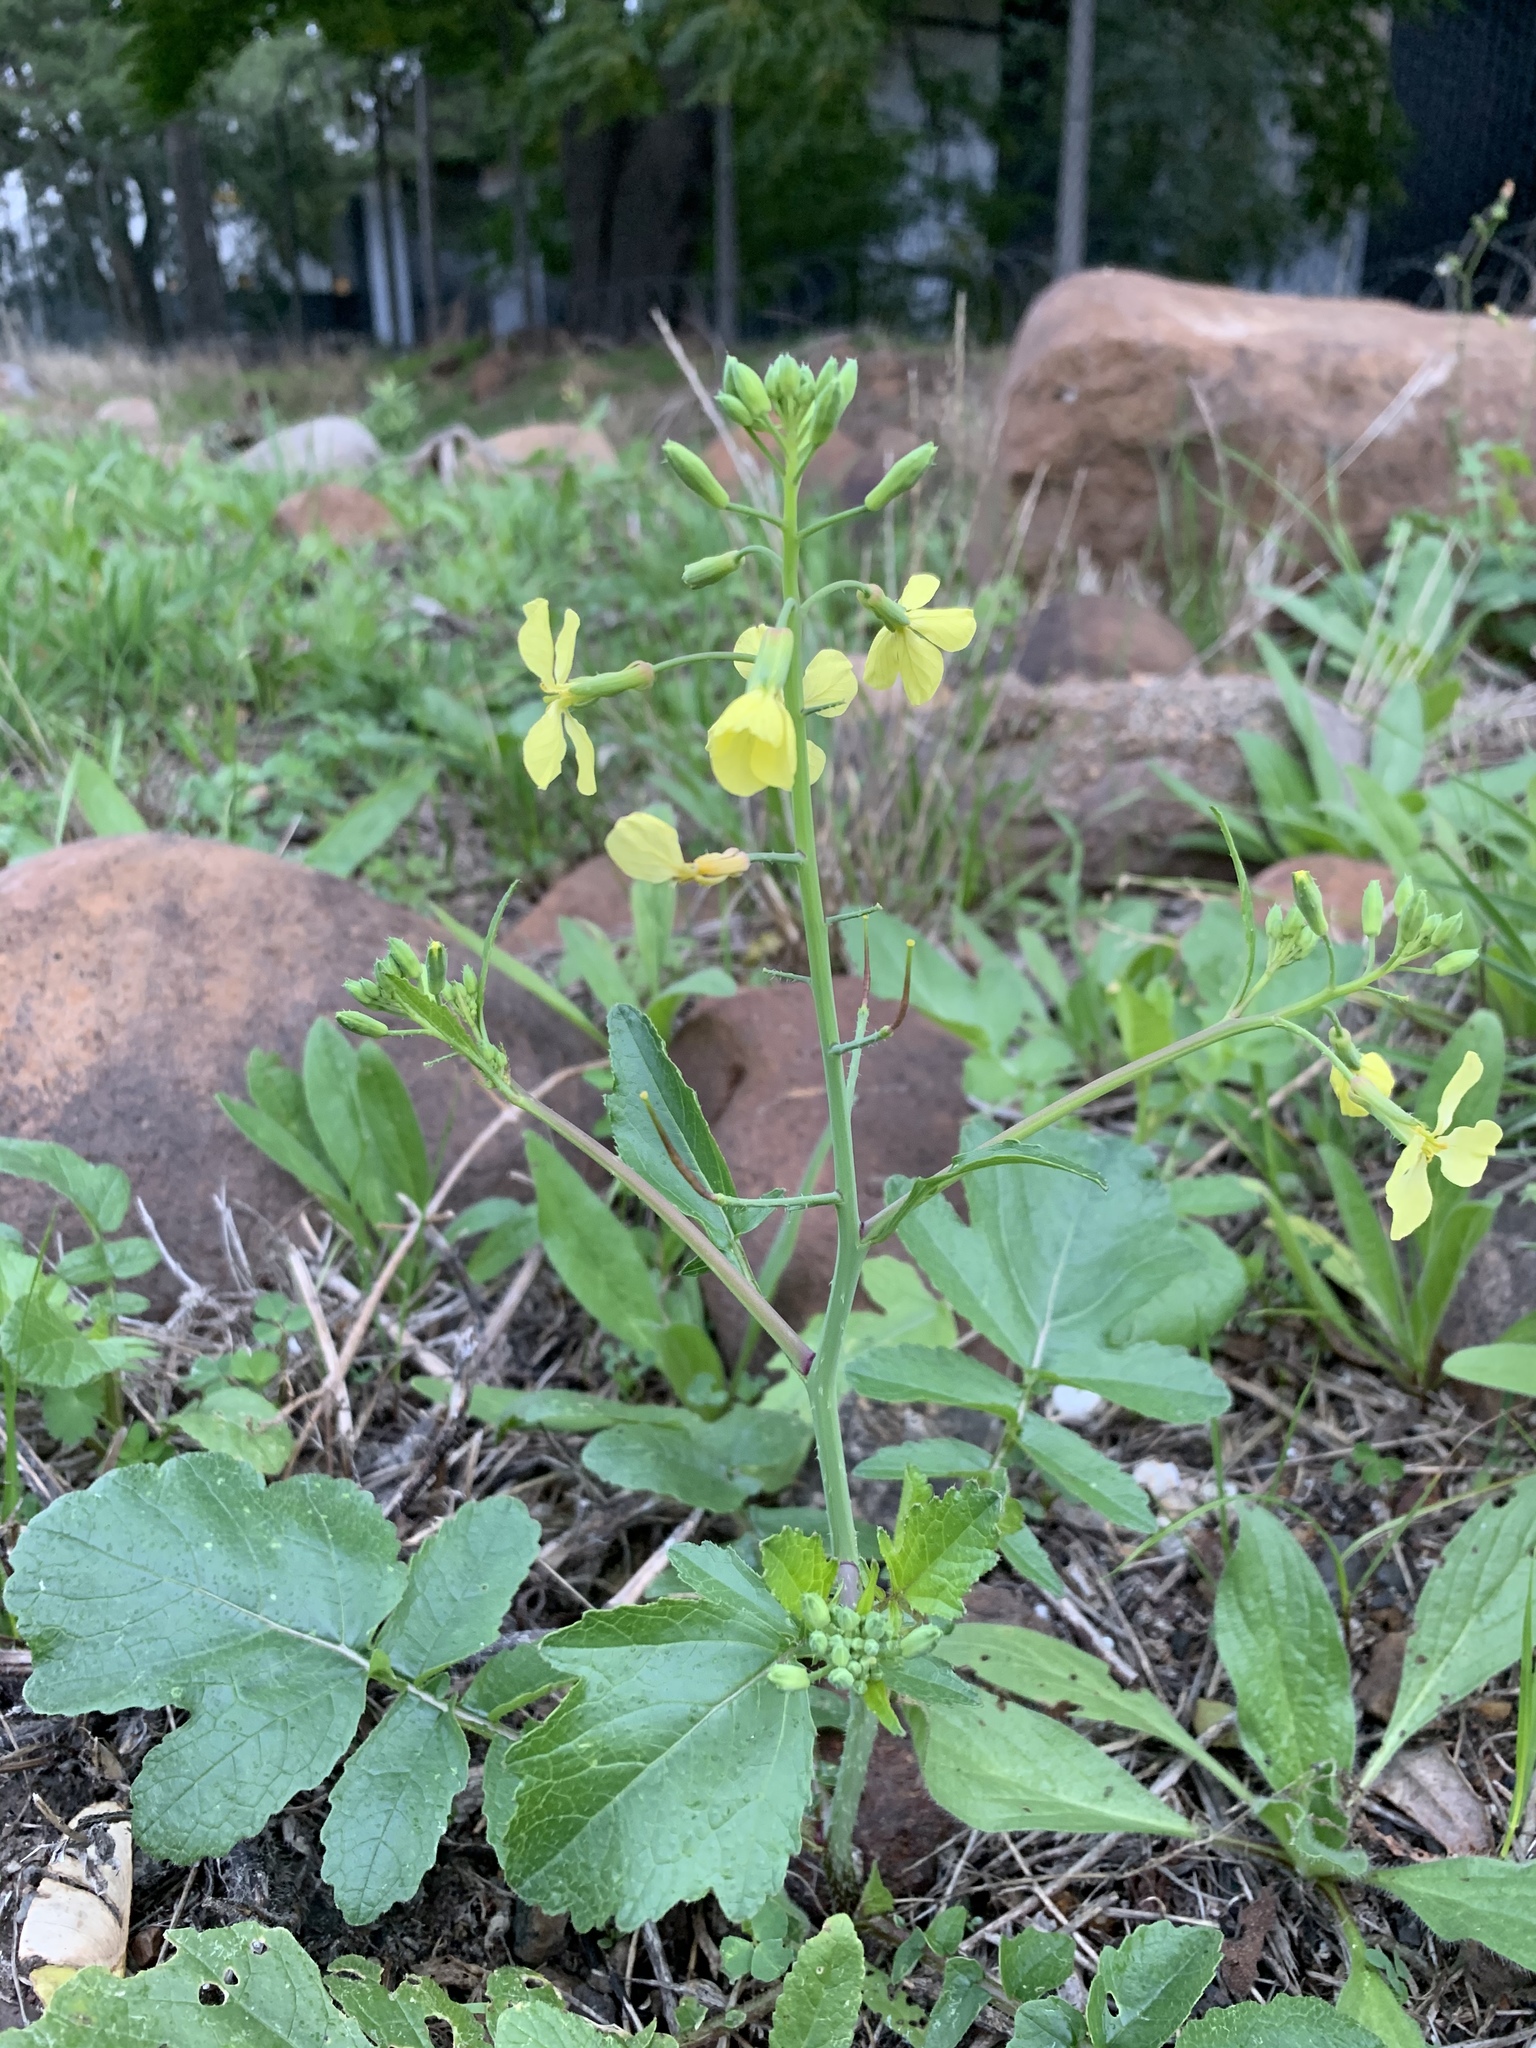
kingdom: Plantae
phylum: Tracheophyta
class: Magnoliopsida
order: Brassicales
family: Brassicaceae
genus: Raphanus
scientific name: Raphanus raphanistrum
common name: Wild radish
